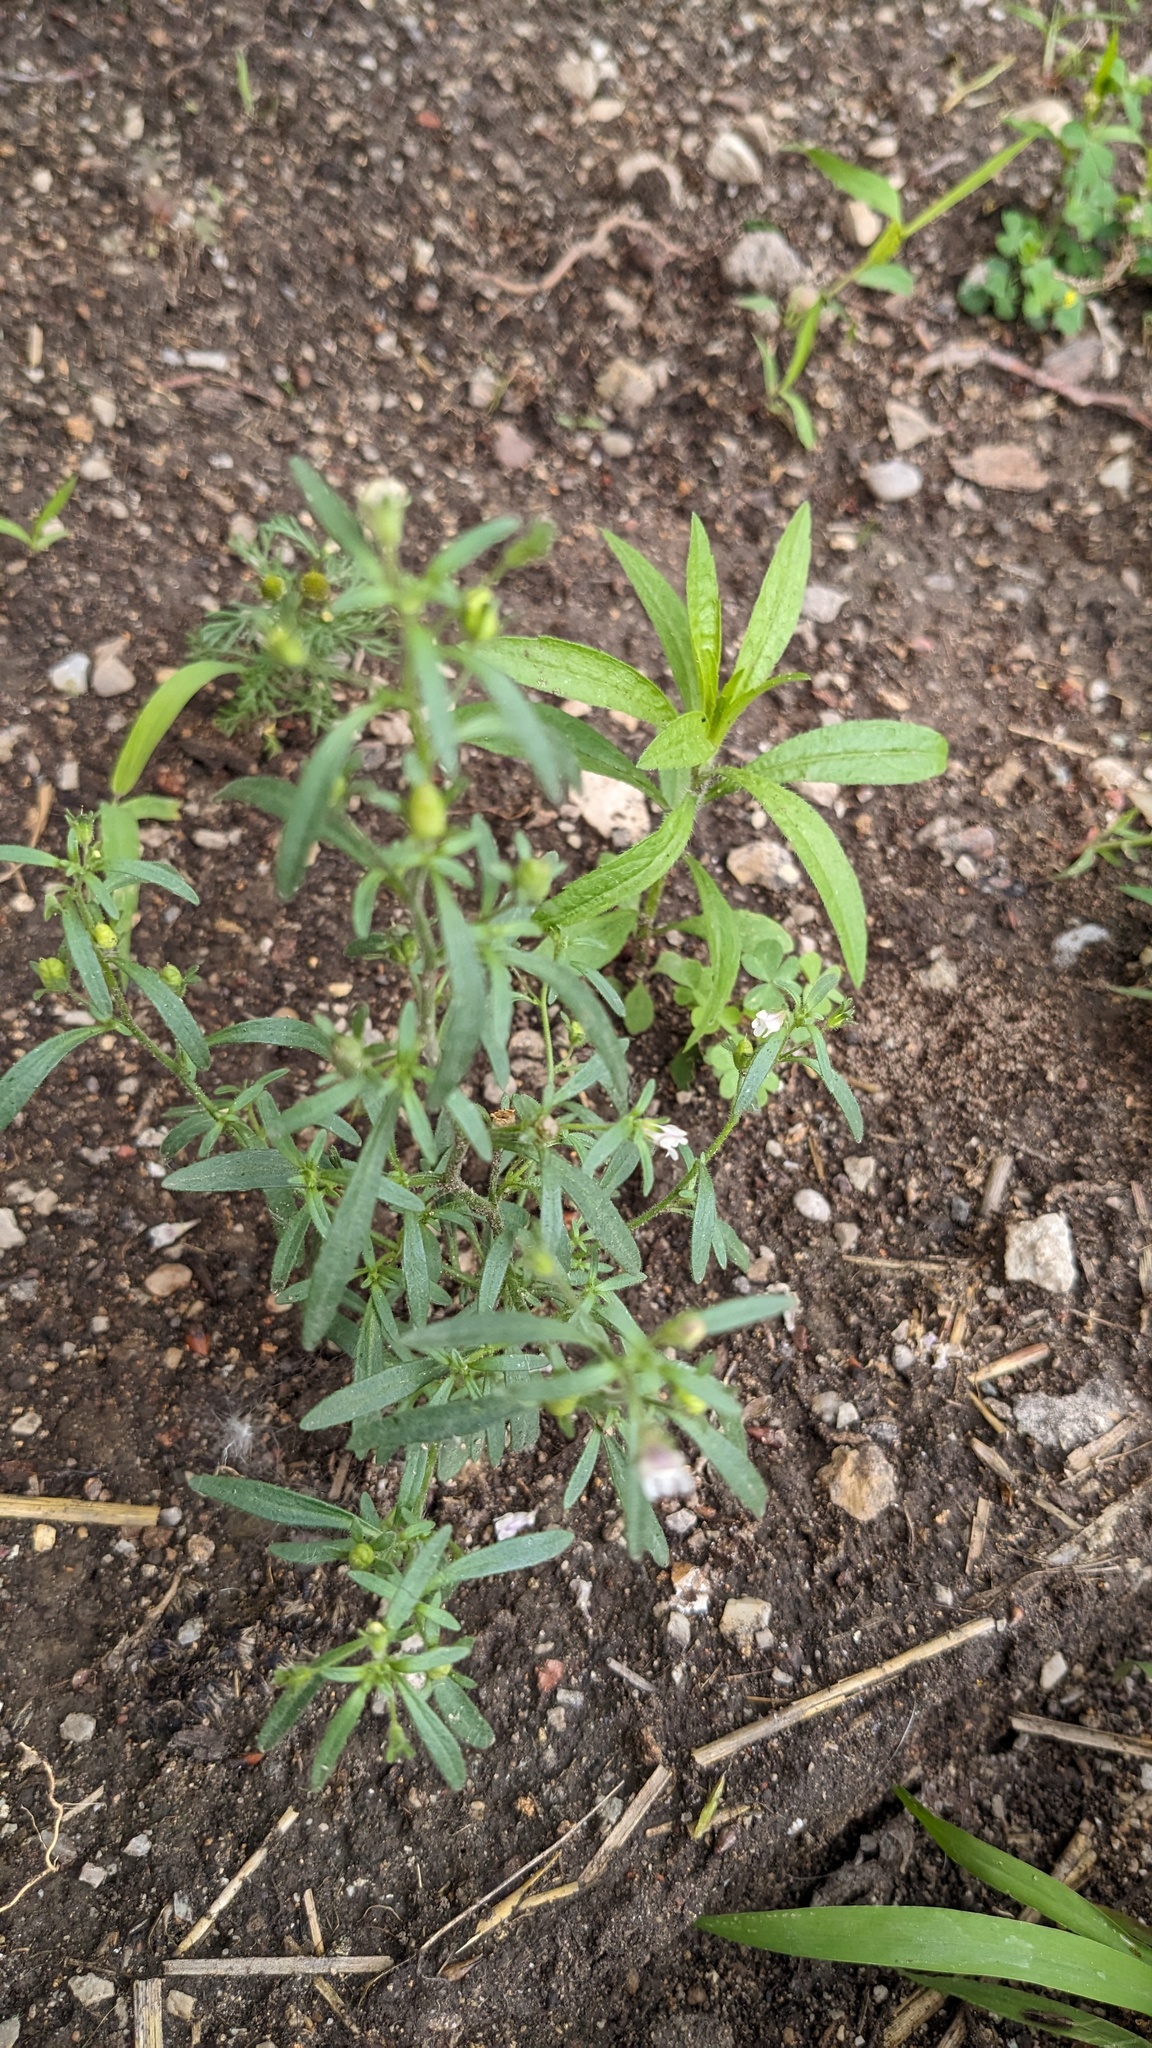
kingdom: Plantae
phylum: Tracheophyta
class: Magnoliopsida
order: Lamiales
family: Plantaginaceae
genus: Chaenorhinum
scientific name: Chaenorhinum minus
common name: Dwarf snapdragon
